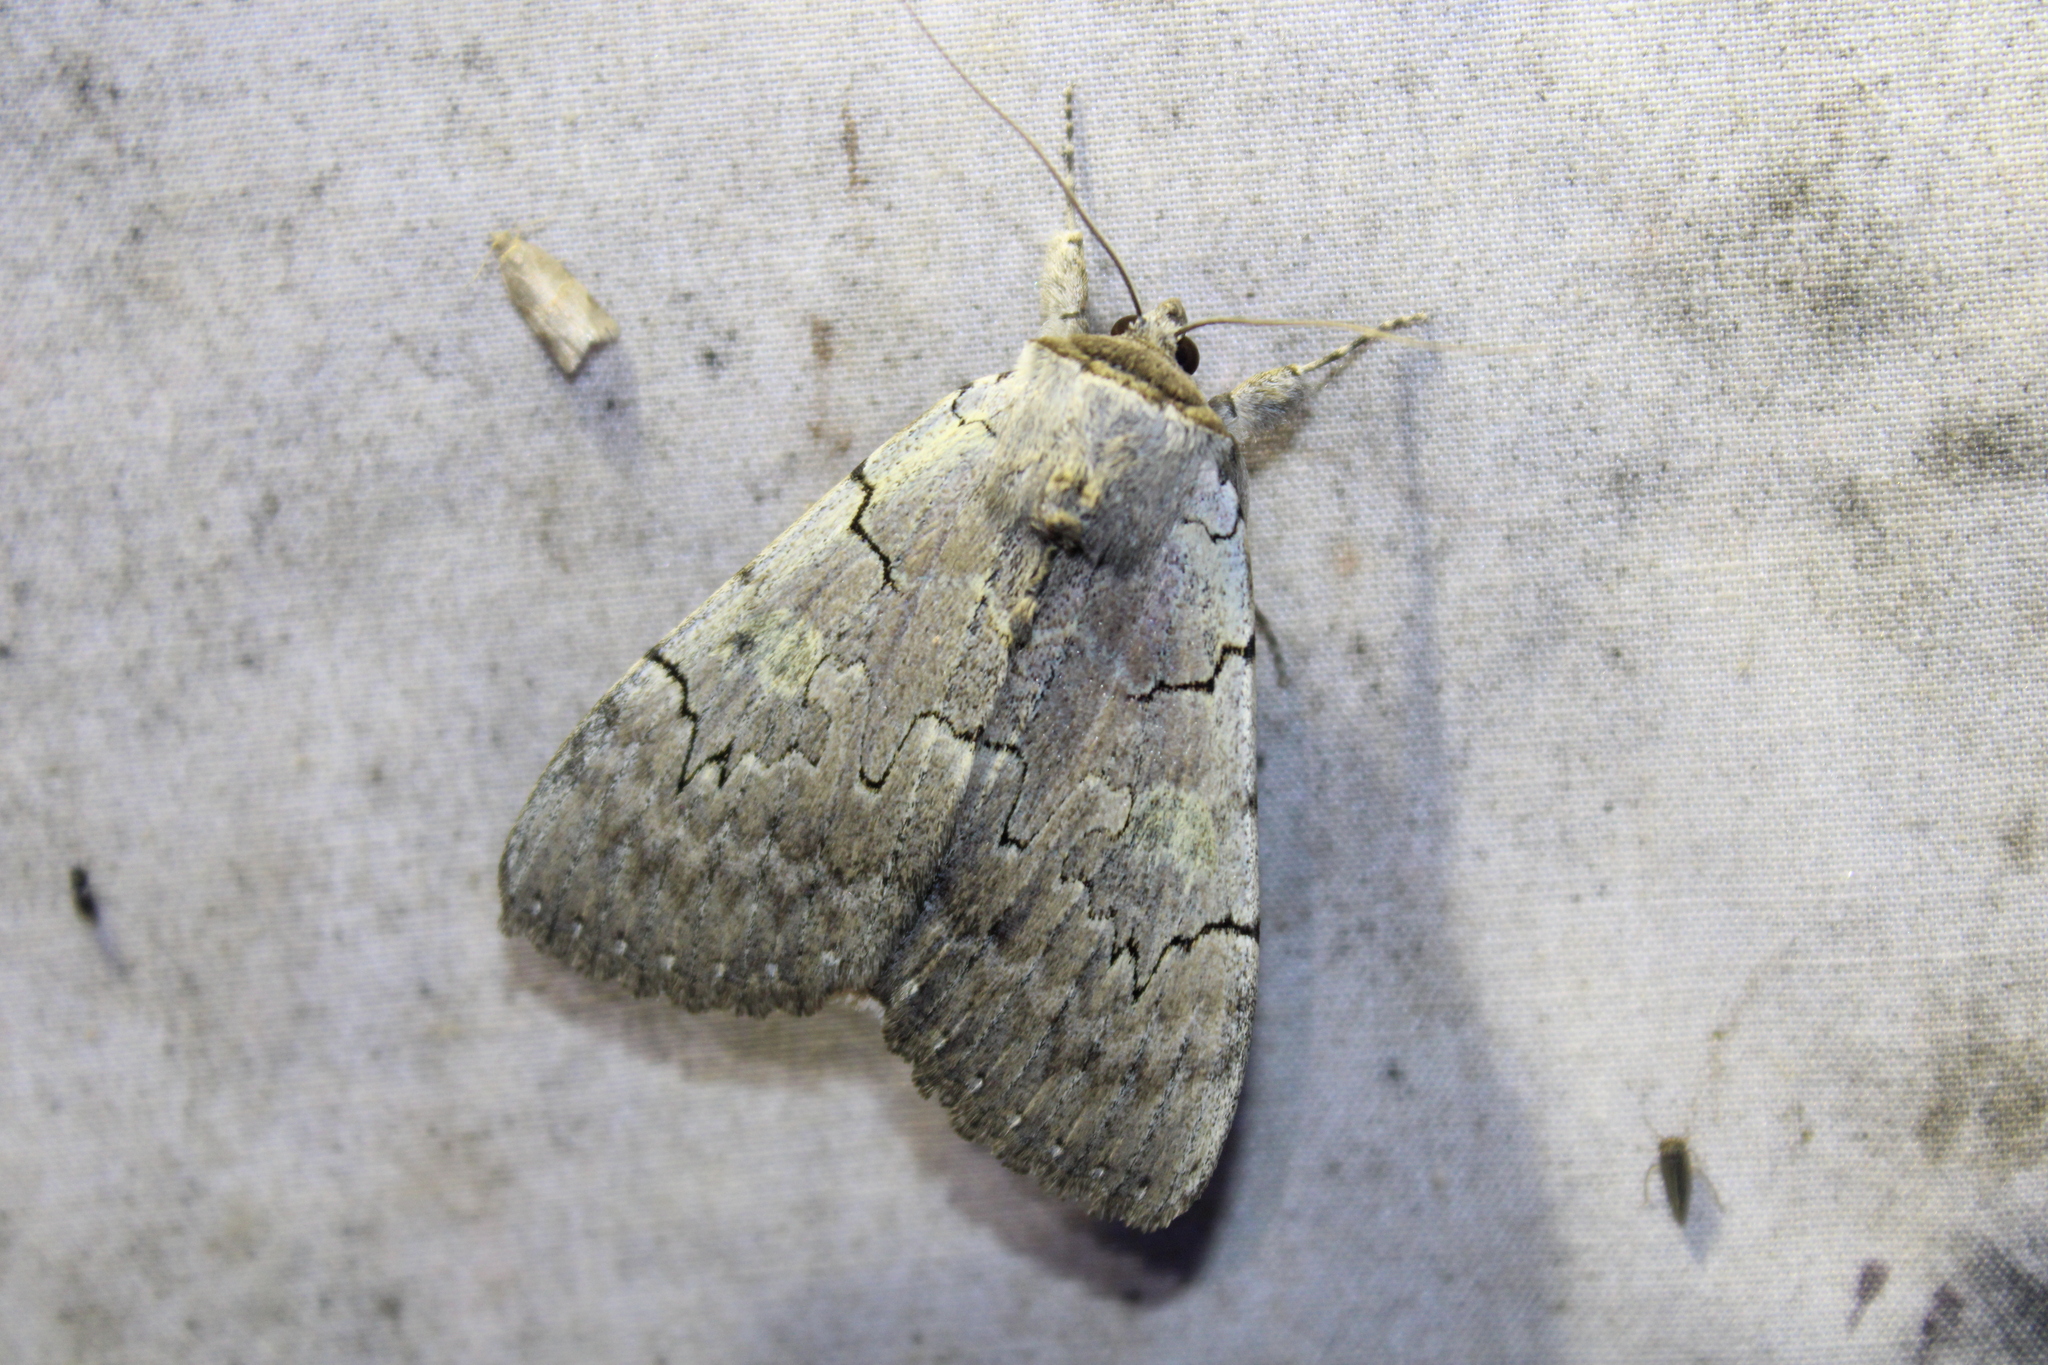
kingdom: Animalia
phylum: Arthropoda
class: Insecta
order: Lepidoptera
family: Erebidae
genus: Catocala
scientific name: Catocala concumbens
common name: Pink underwing
